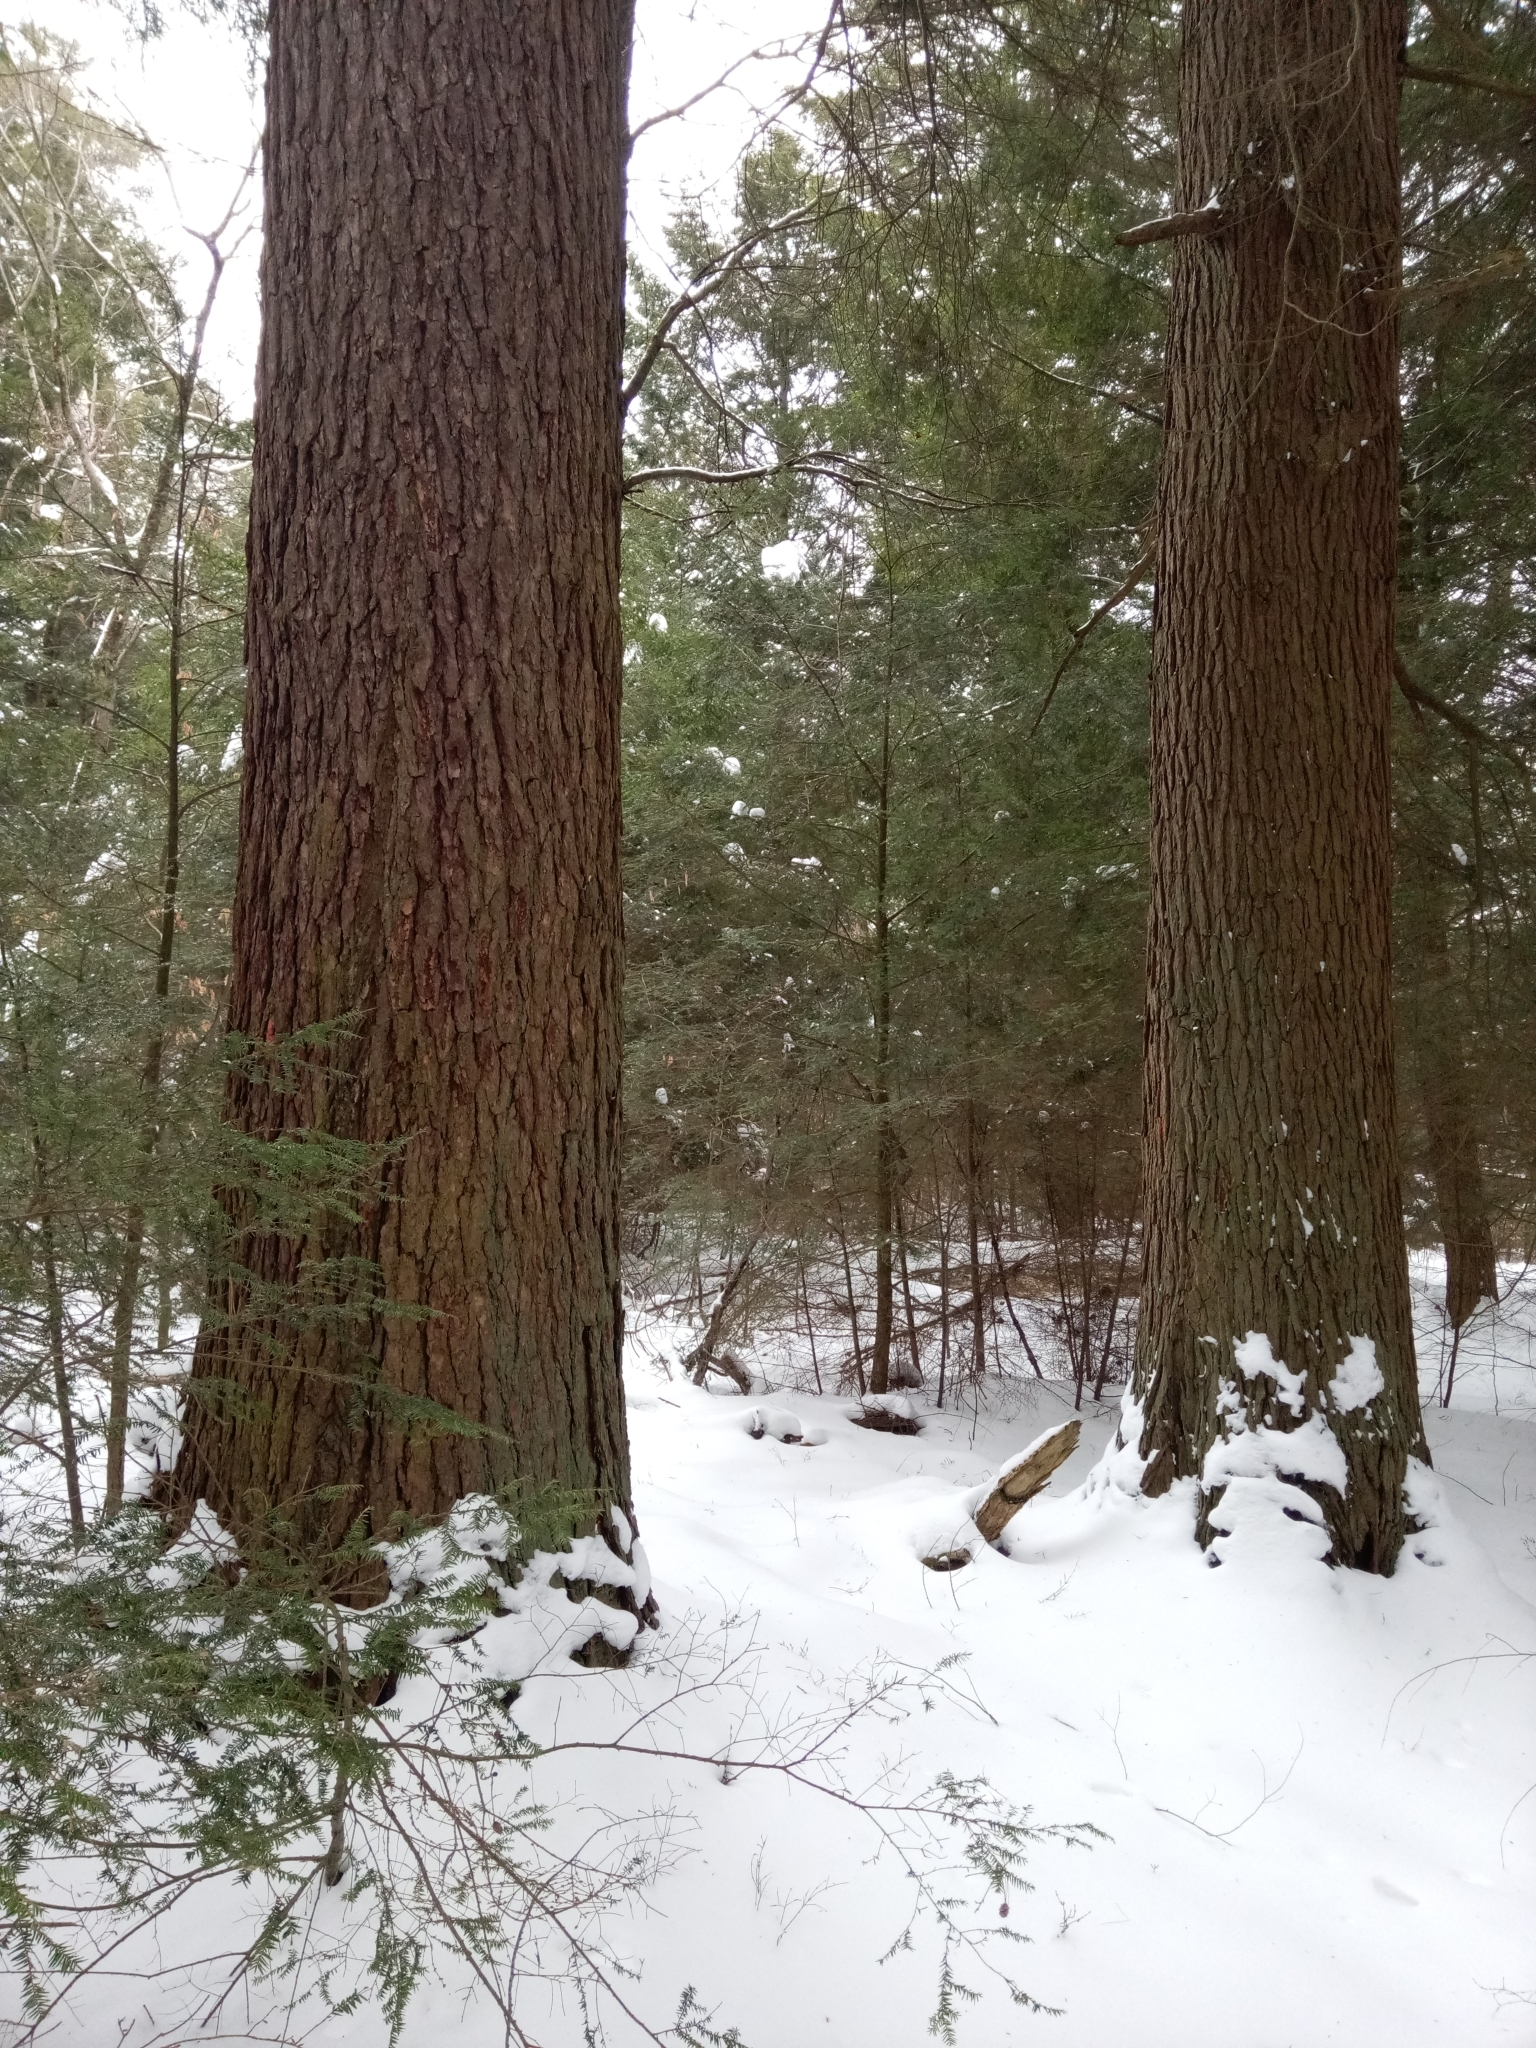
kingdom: Plantae
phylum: Tracheophyta
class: Pinopsida
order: Pinales
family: Pinaceae
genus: Tsuga
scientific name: Tsuga canadensis
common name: Eastern hemlock
